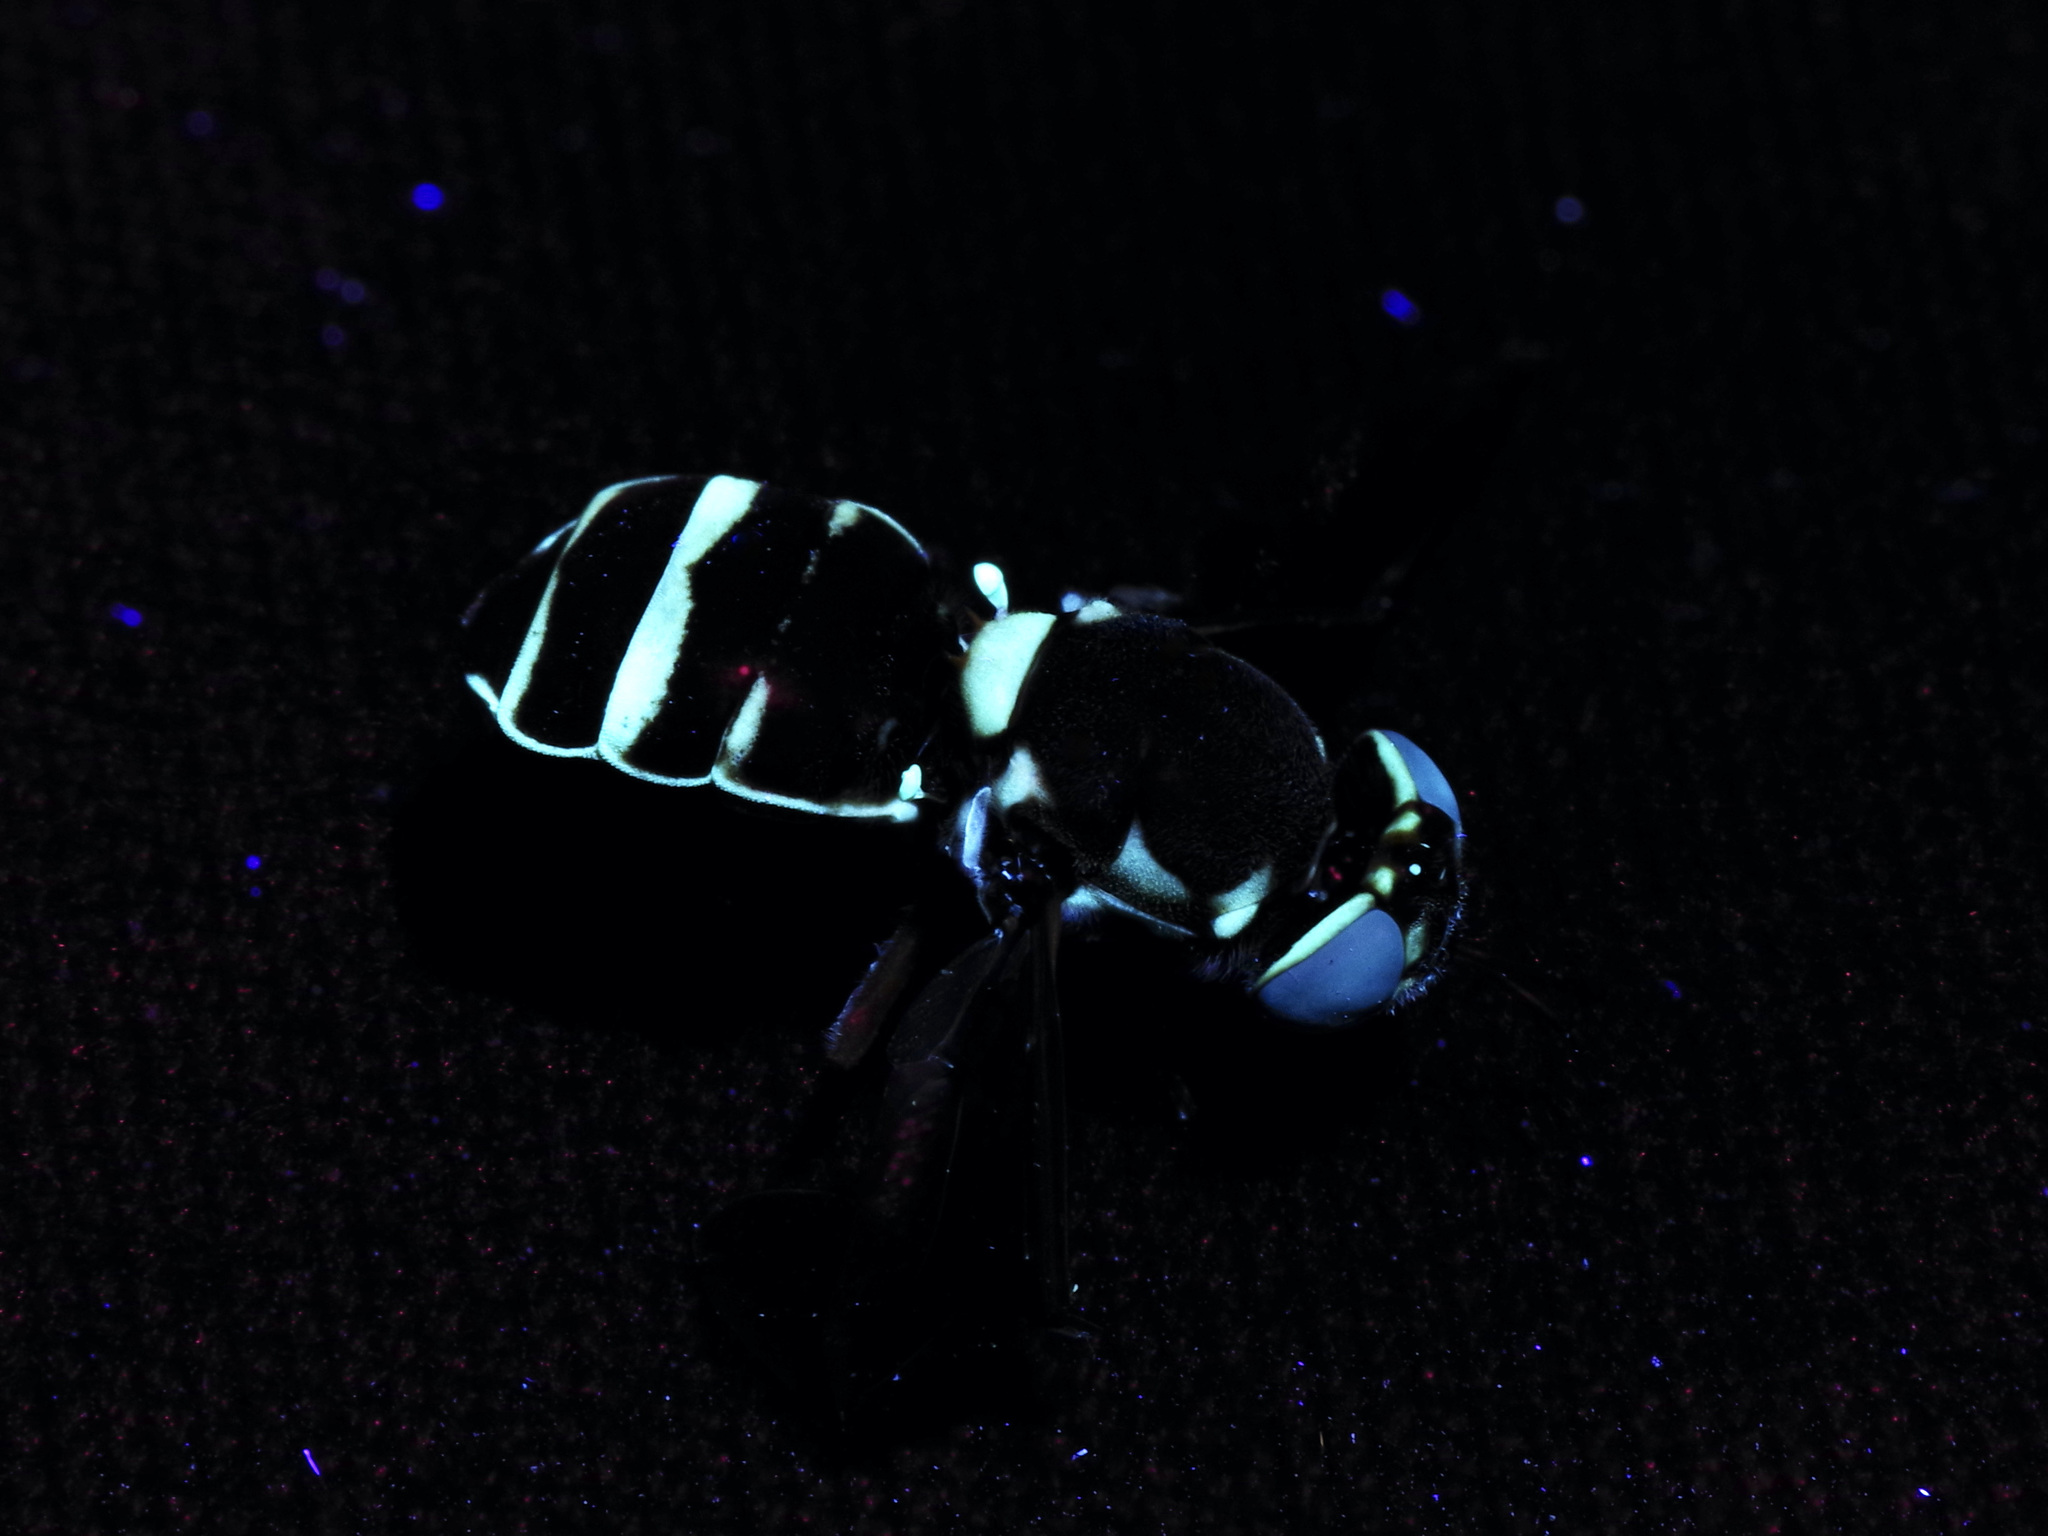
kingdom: Animalia
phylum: Arthropoda
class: Insecta
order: Diptera
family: Stratiomyidae
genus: Hoplitimyia
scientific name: Hoplitimyia constans
